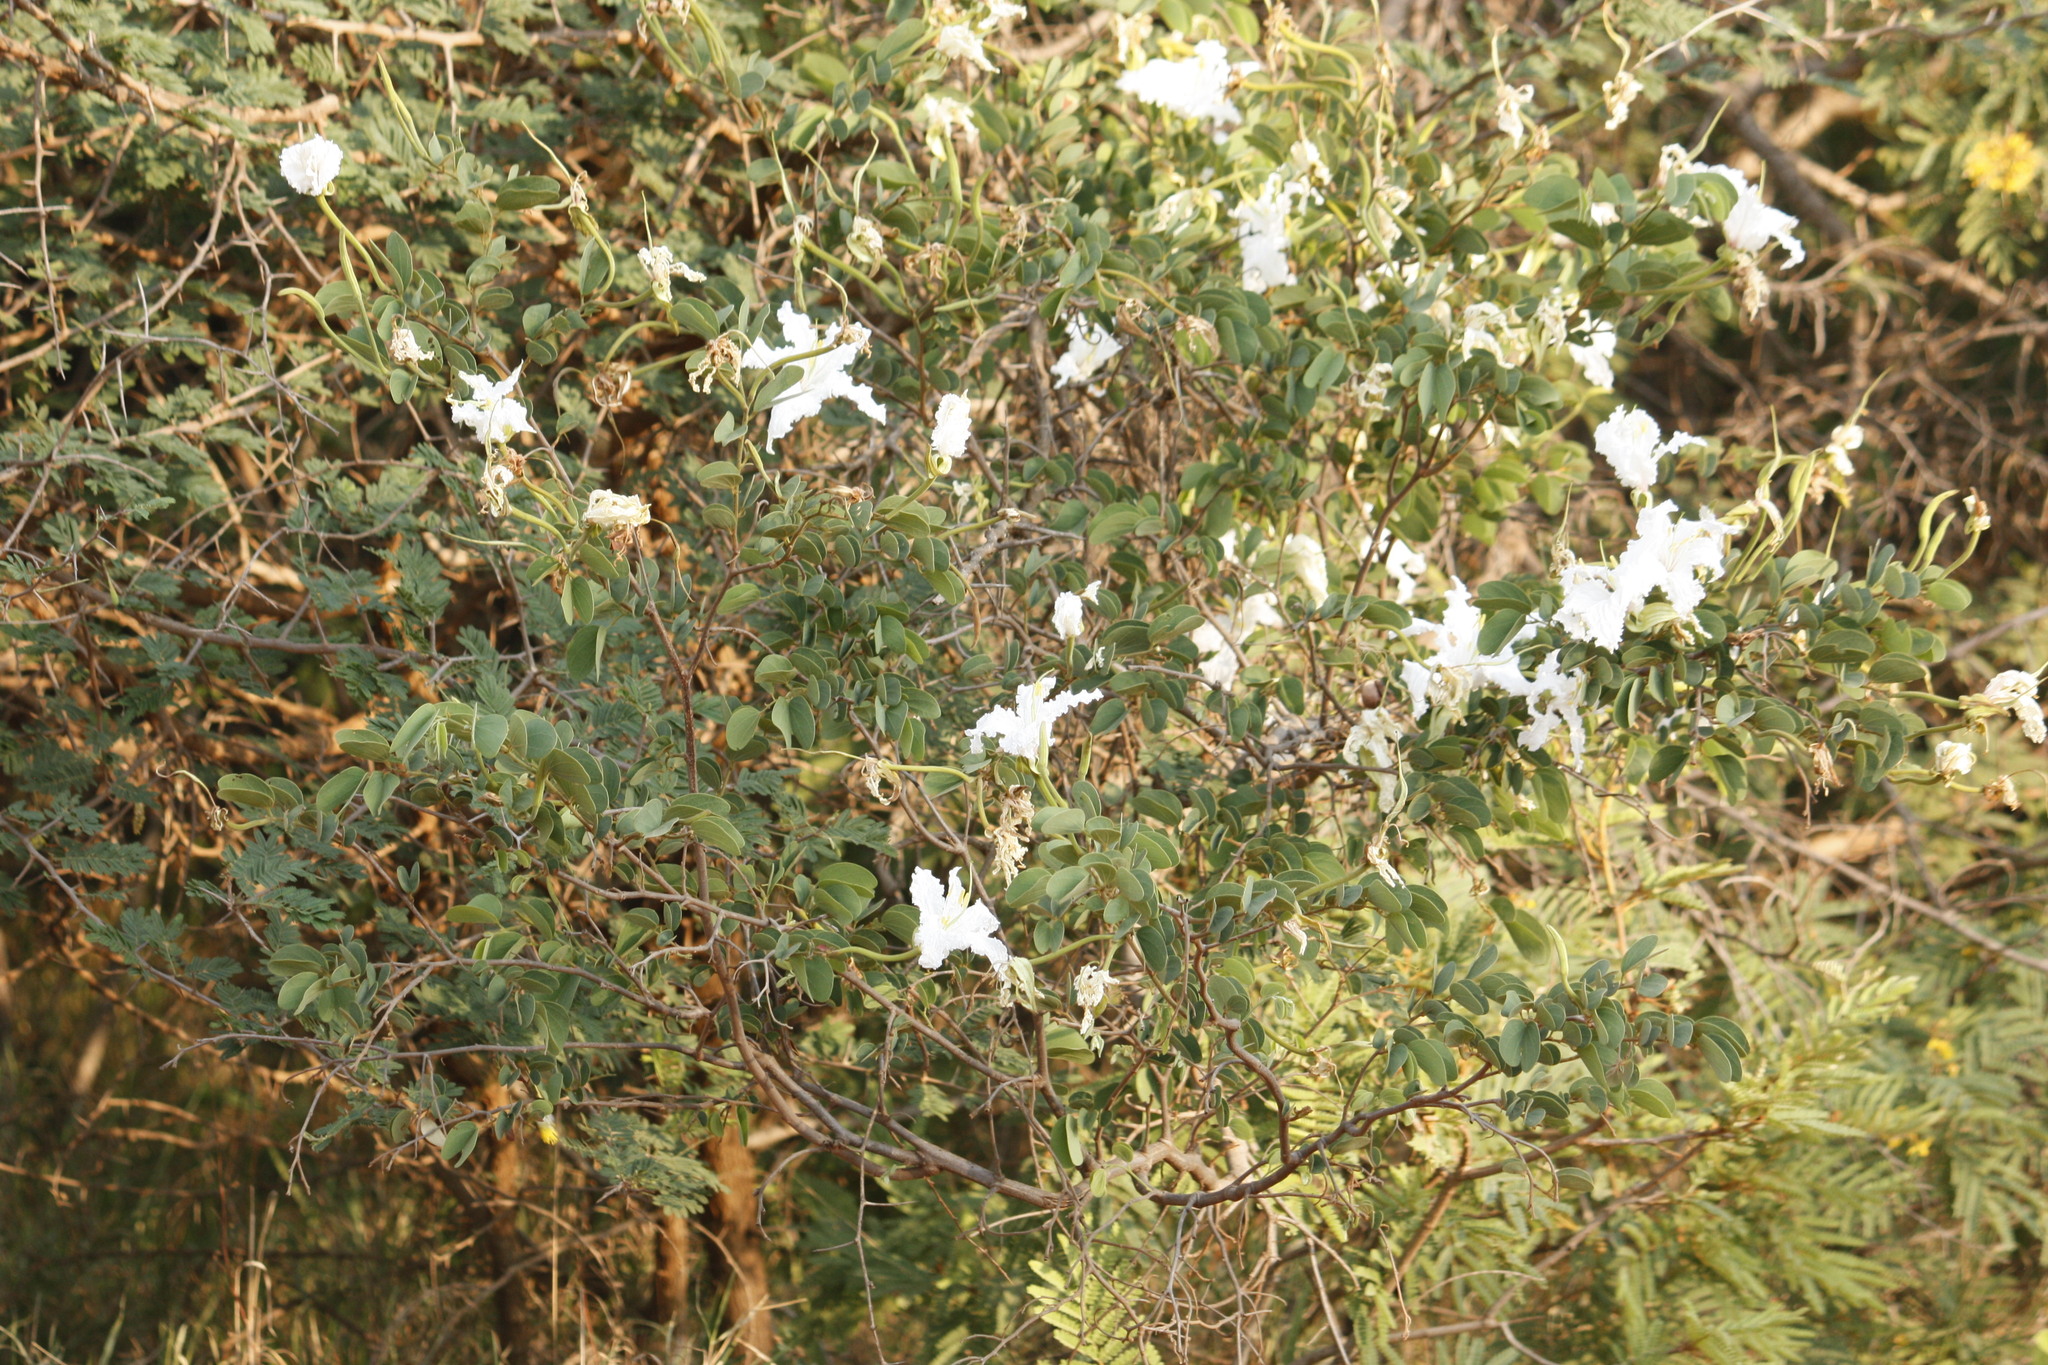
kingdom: Plantae
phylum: Tracheophyta
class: Magnoliopsida
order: Fabales
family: Fabaceae
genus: Bauhinia
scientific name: Bauhinia petersiana
